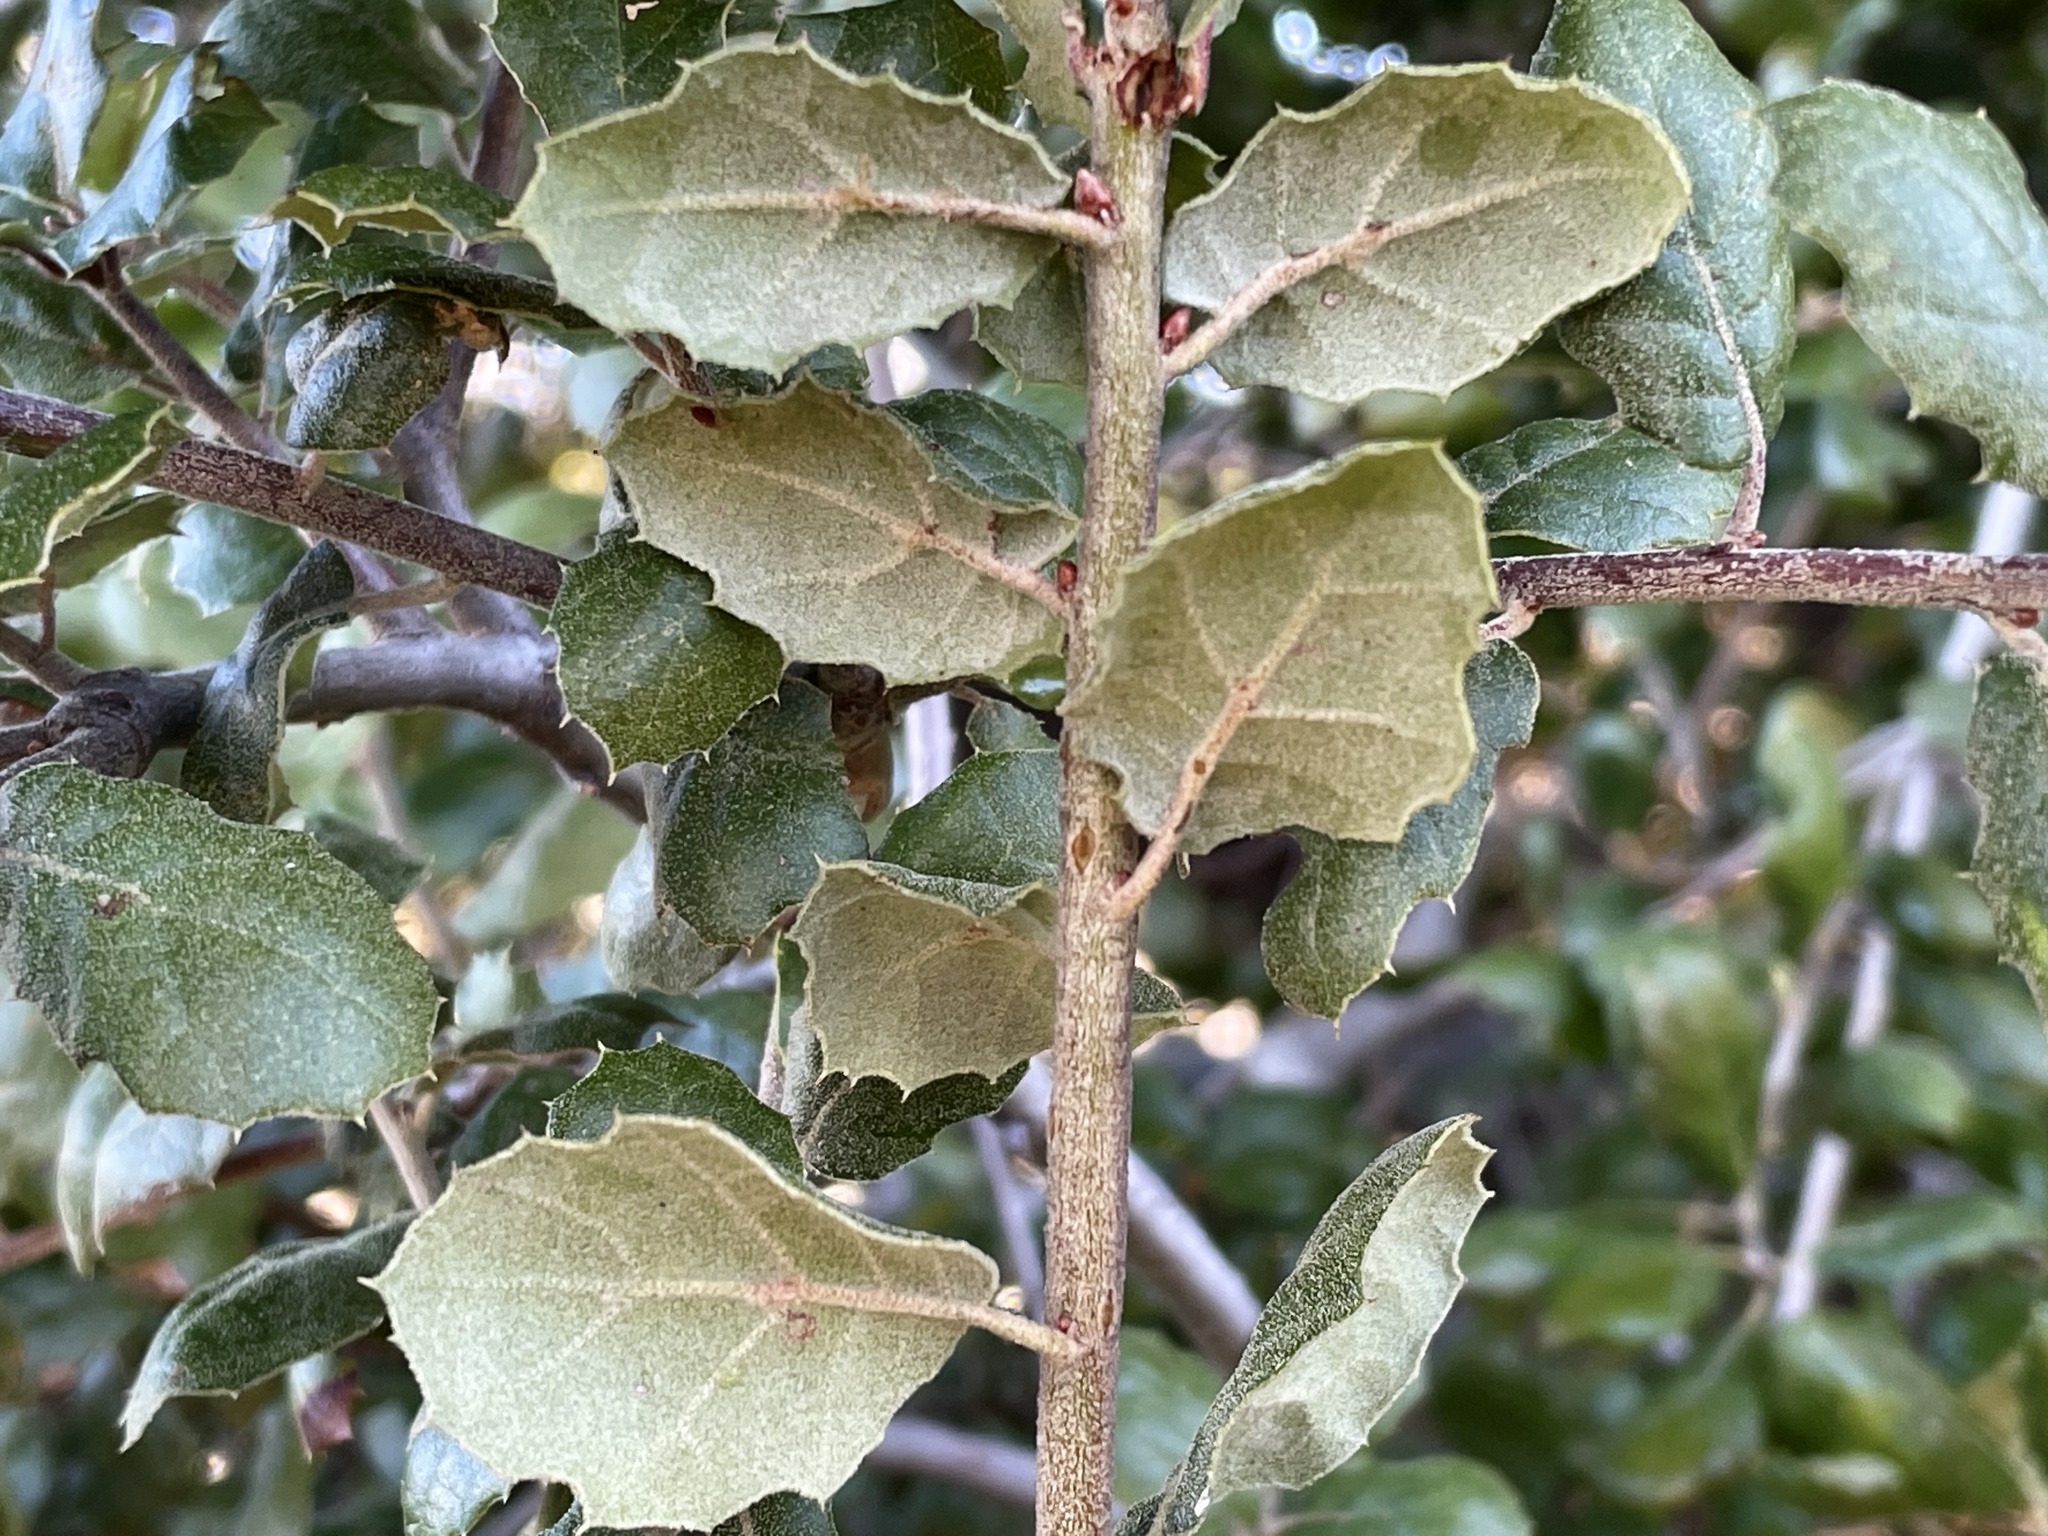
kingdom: Plantae
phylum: Tracheophyta
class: Magnoliopsida
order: Fagales
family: Fagaceae
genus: Quercus
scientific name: Quercus agrifolia
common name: California live oak
